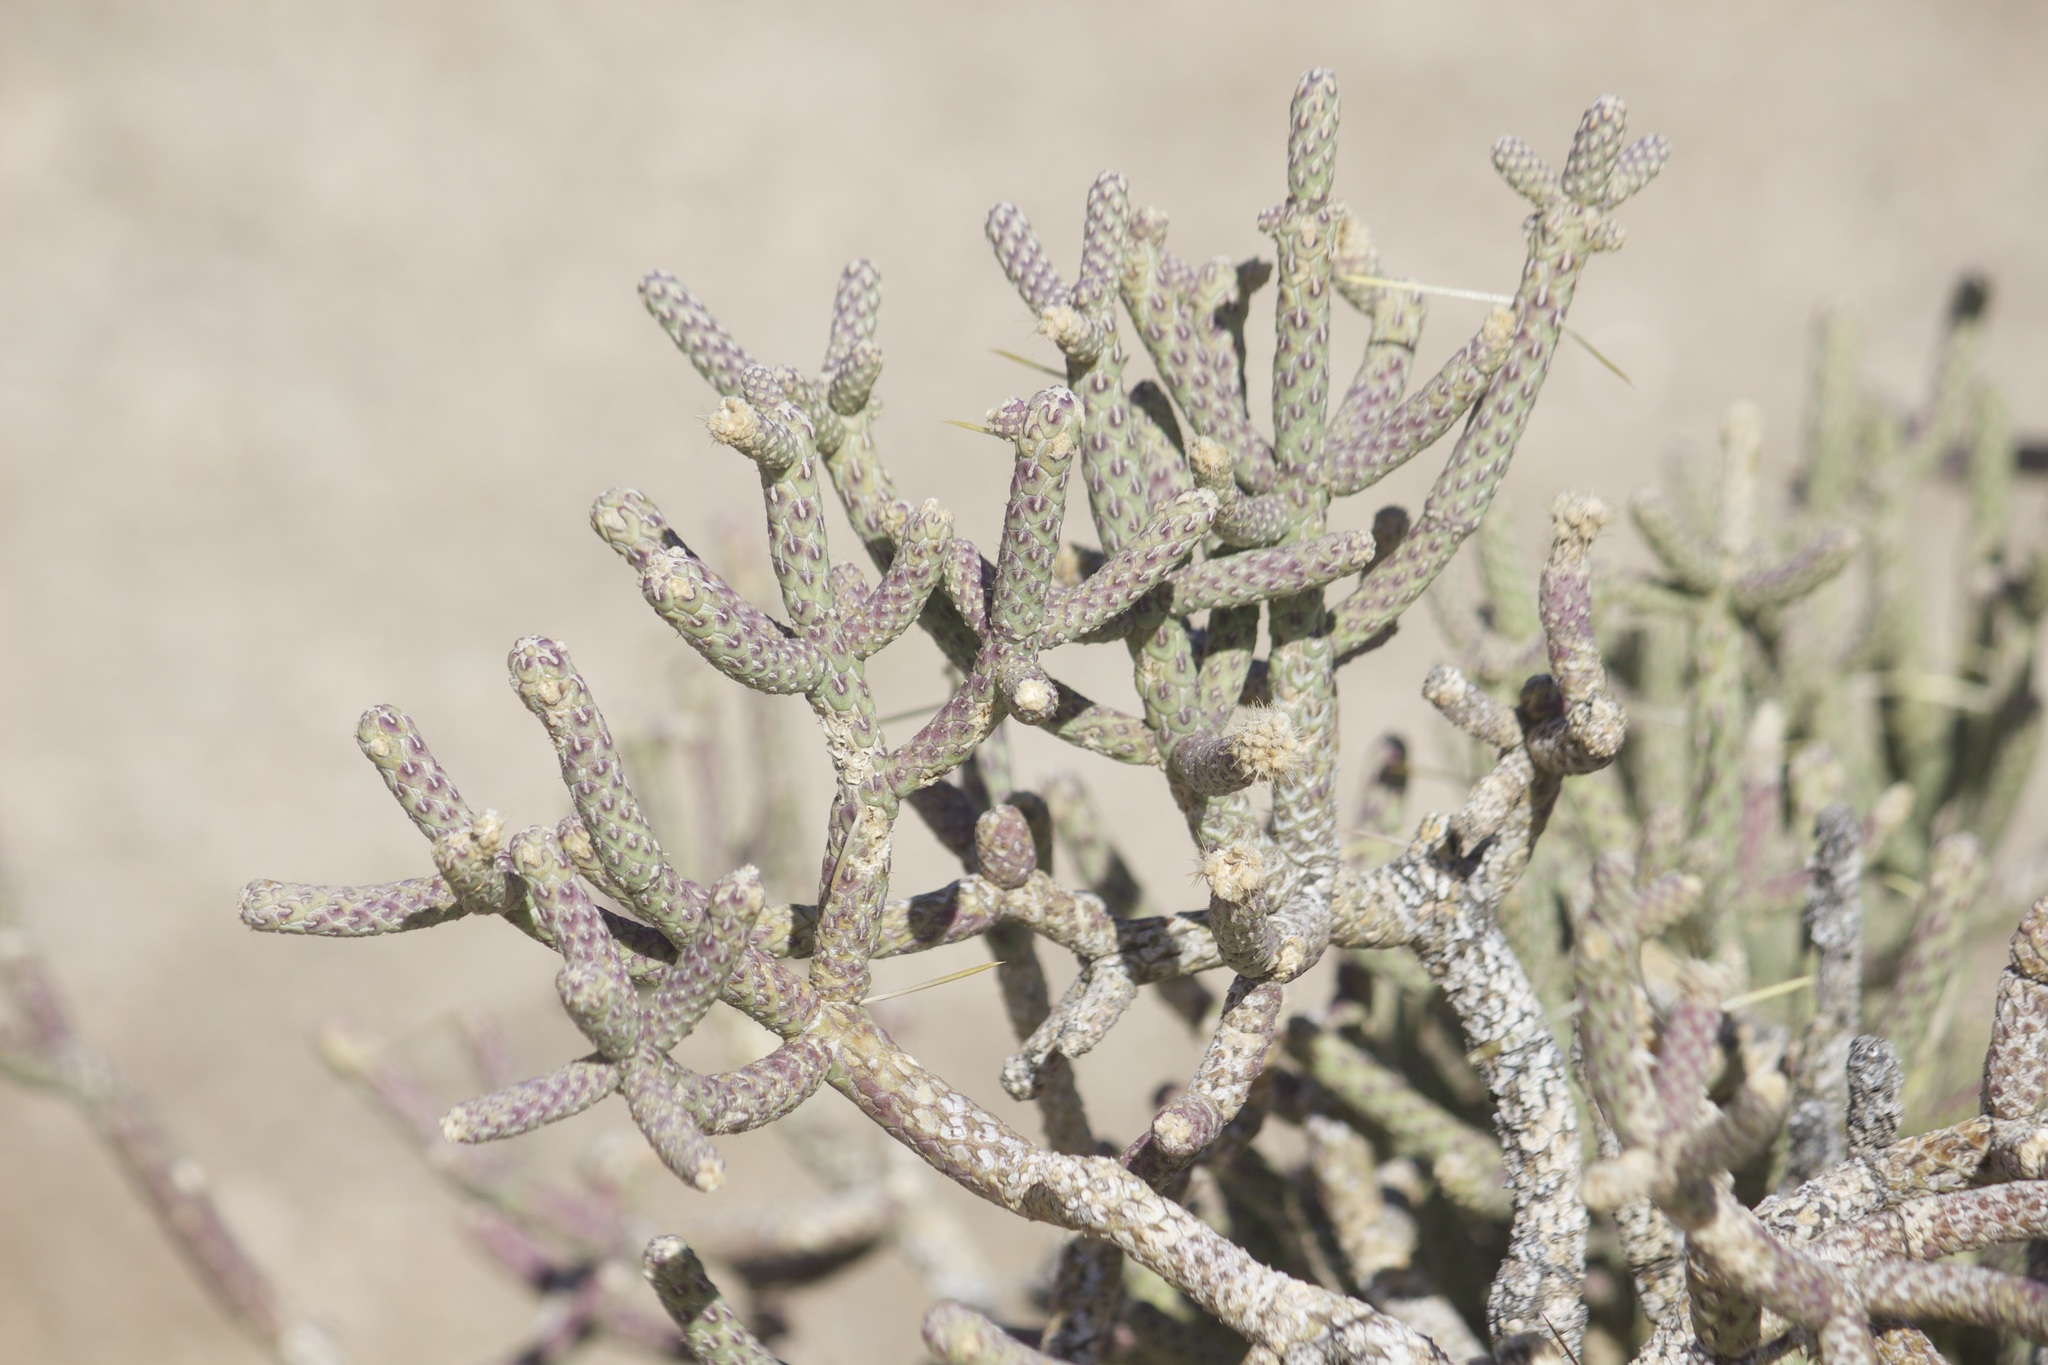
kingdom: Plantae
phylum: Tracheophyta
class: Magnoliopsida
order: Caryophyllales
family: Cactaceae
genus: Cylindropuntia
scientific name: Cylindropuntia ramosissima
